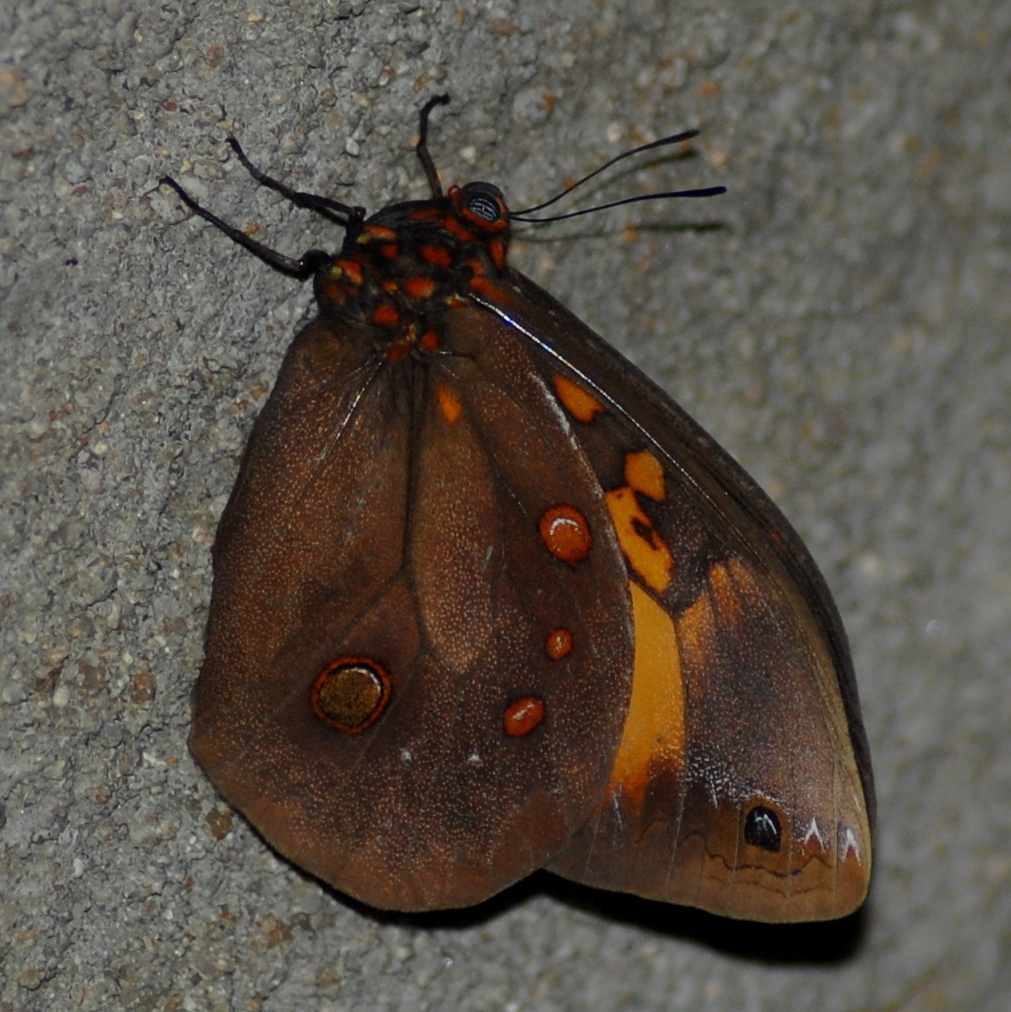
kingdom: Animalia
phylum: Arthropoda
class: Insecta
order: Lepidoptera
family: Nymphalidae
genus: Brassolis
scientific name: Brassolis astyra
